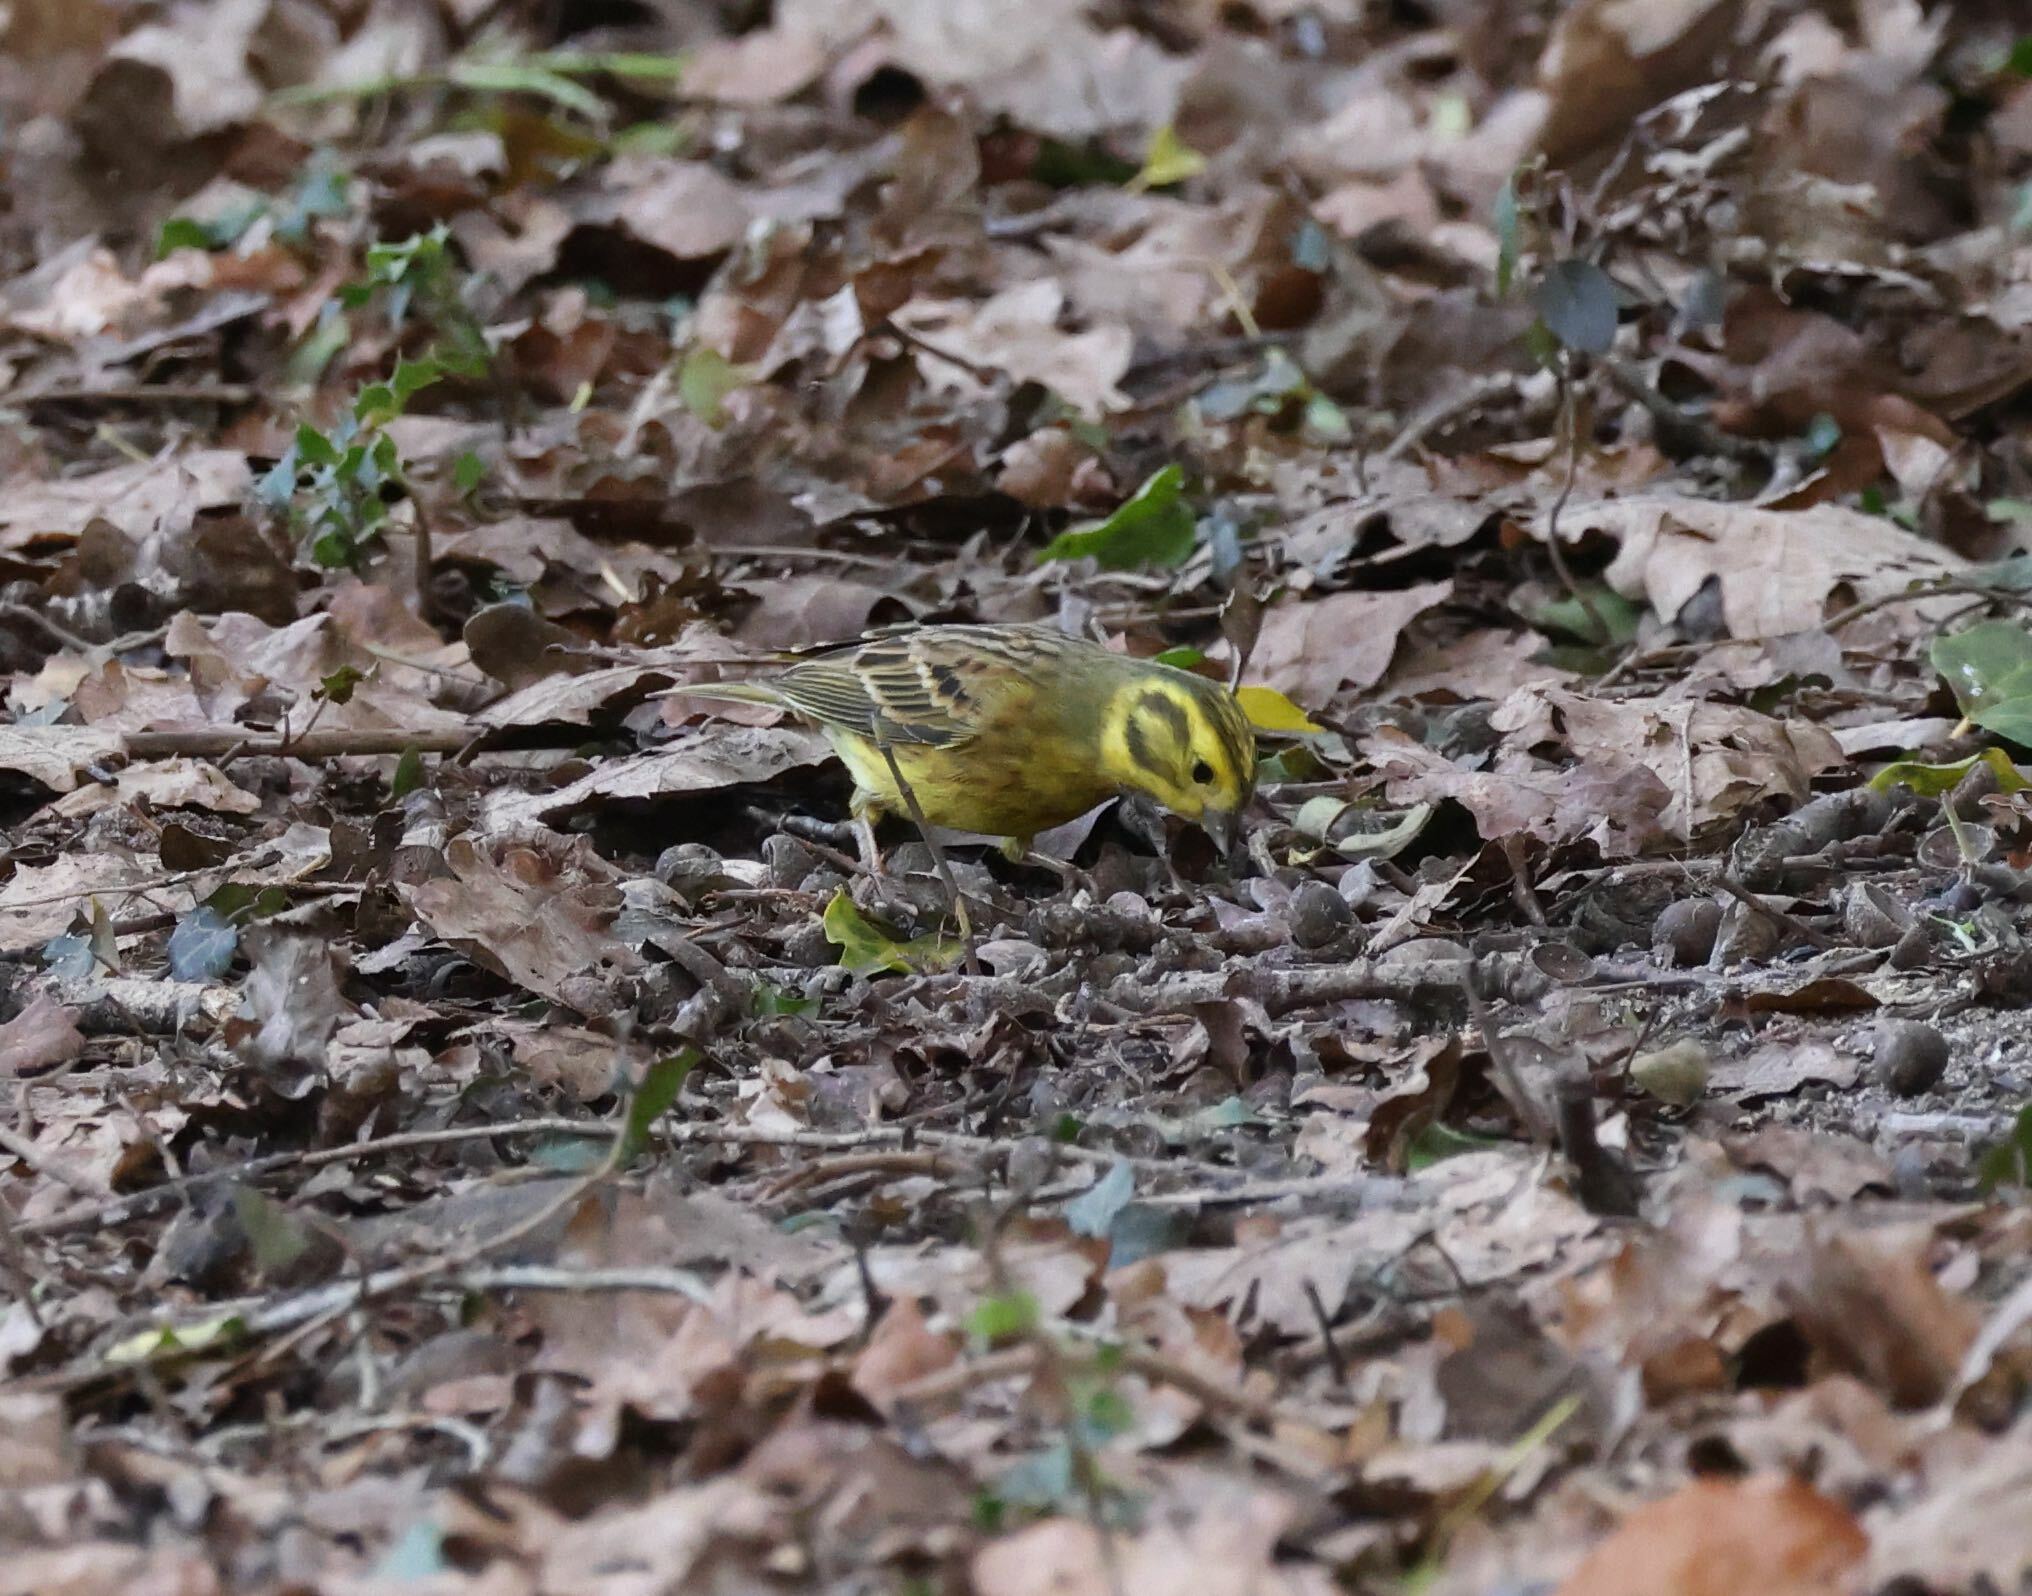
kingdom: Animalia
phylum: Chordata
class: Aves
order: Passeriformes
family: Emberizidae
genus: Emberiza
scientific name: Emberiza citrinella
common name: Yellowhammer
